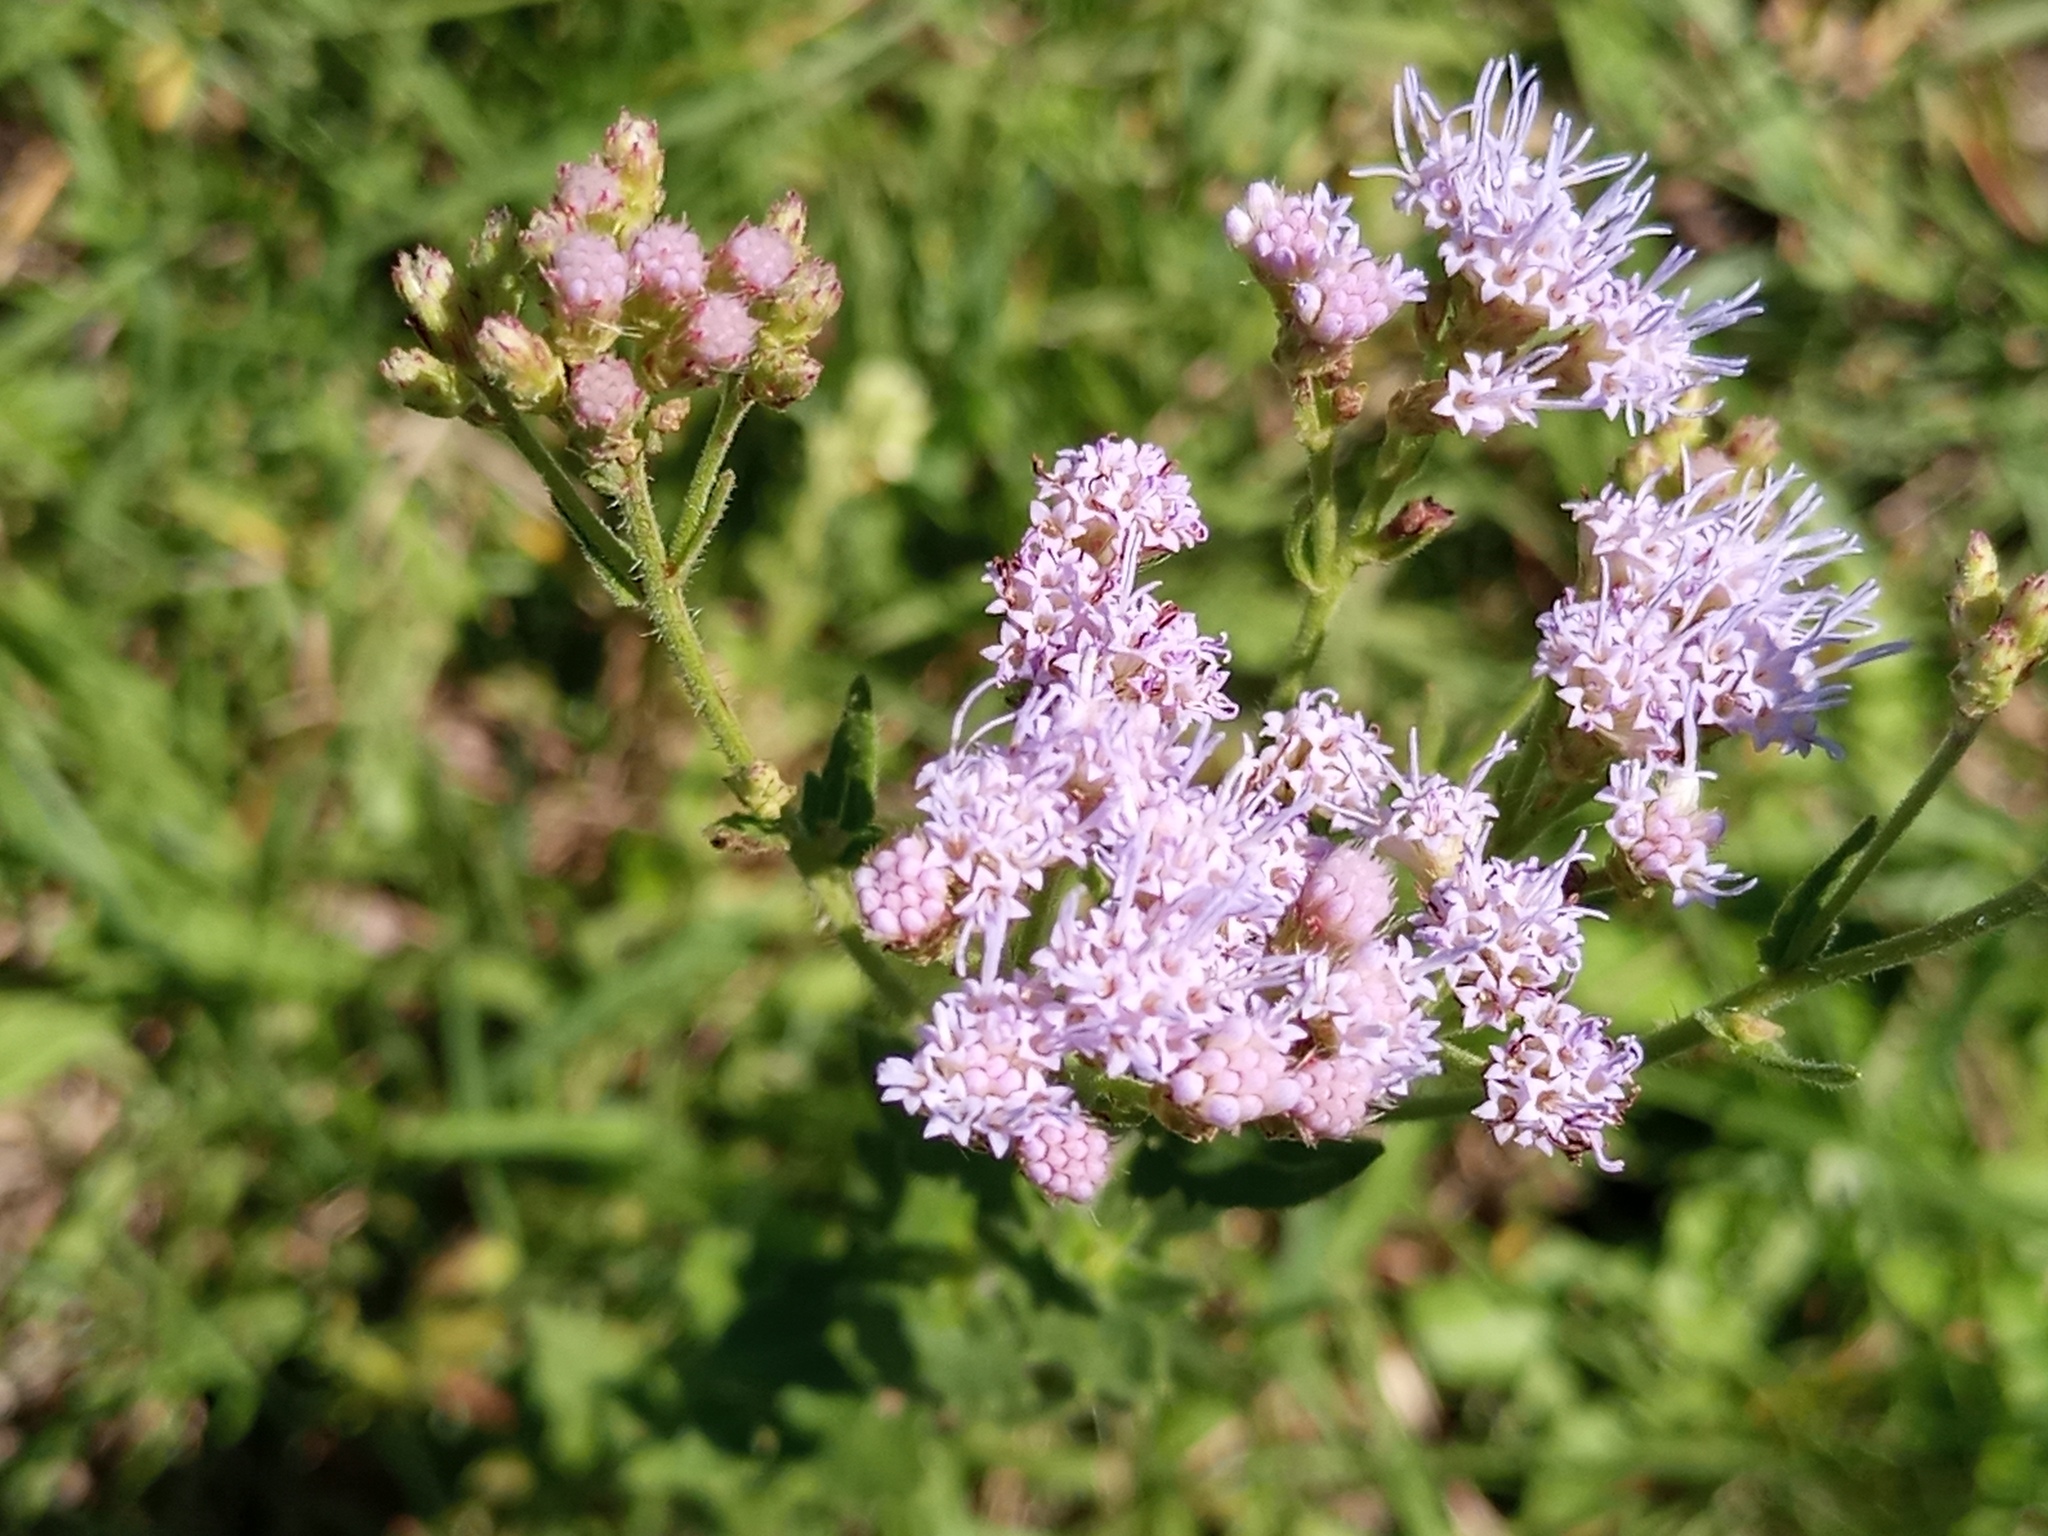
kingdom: Plantae
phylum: Tracheophyta
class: Magnoliopsida
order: Asterales
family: Asteraceae
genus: Chromolaena
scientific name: Chromolaena hirsuta
